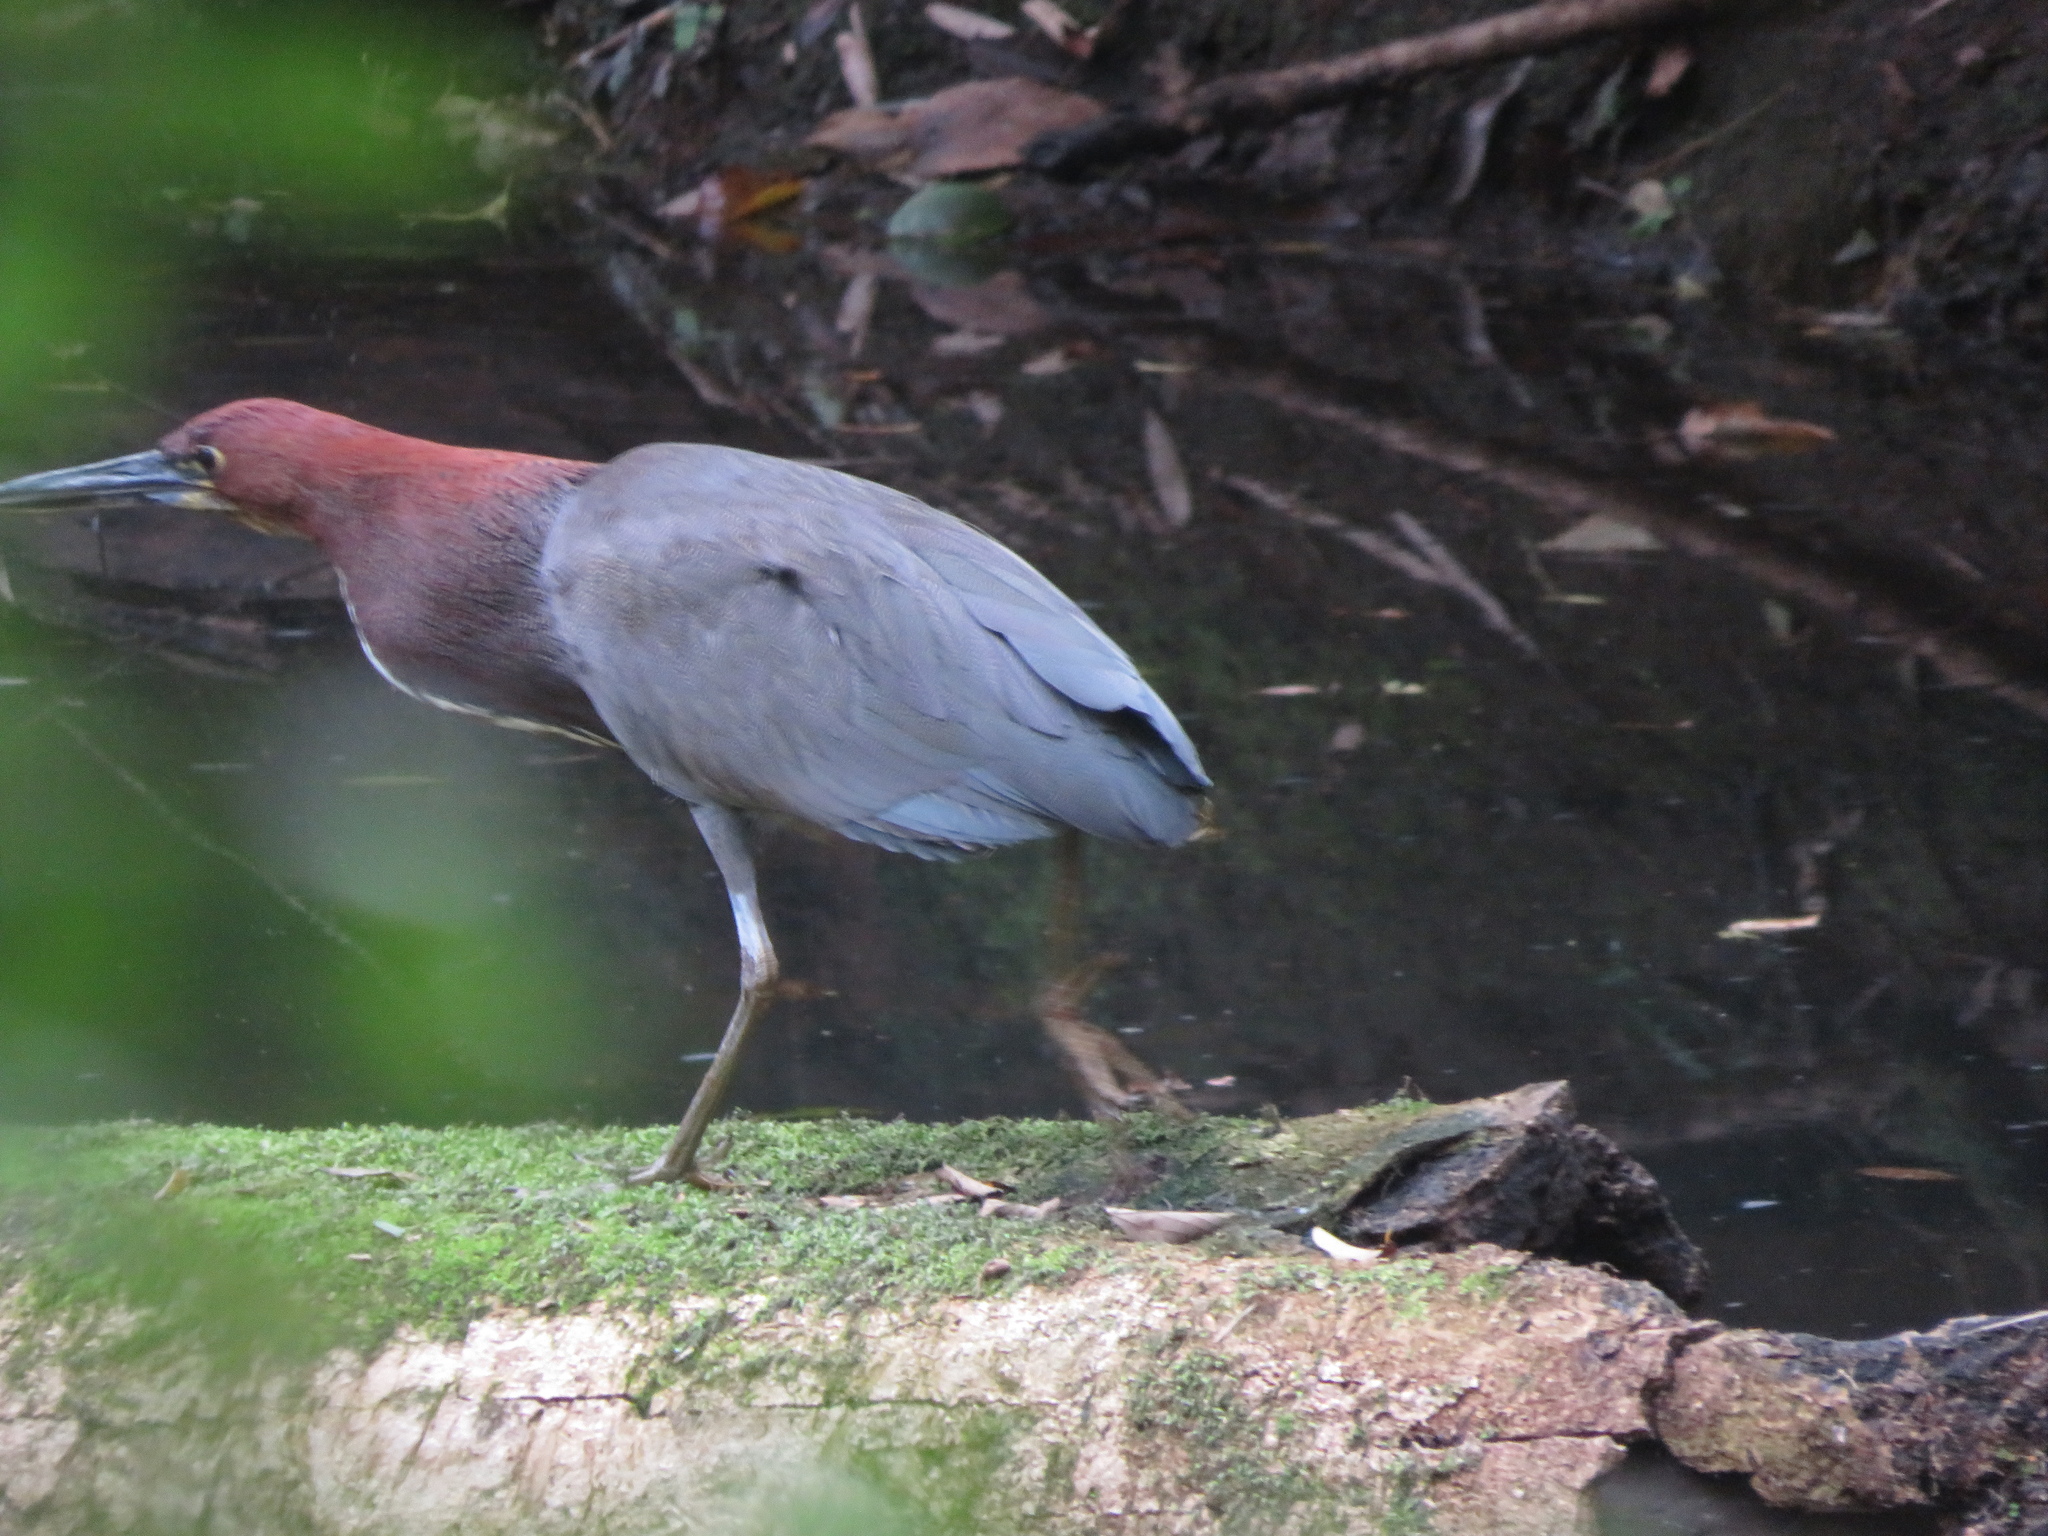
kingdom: Animalia
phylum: Chordata
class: Aves
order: Pelecaniformes
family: Ardeidae
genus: Tigrisoma
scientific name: Tigrisoma lineatum
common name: Rufescent tiger-heron
